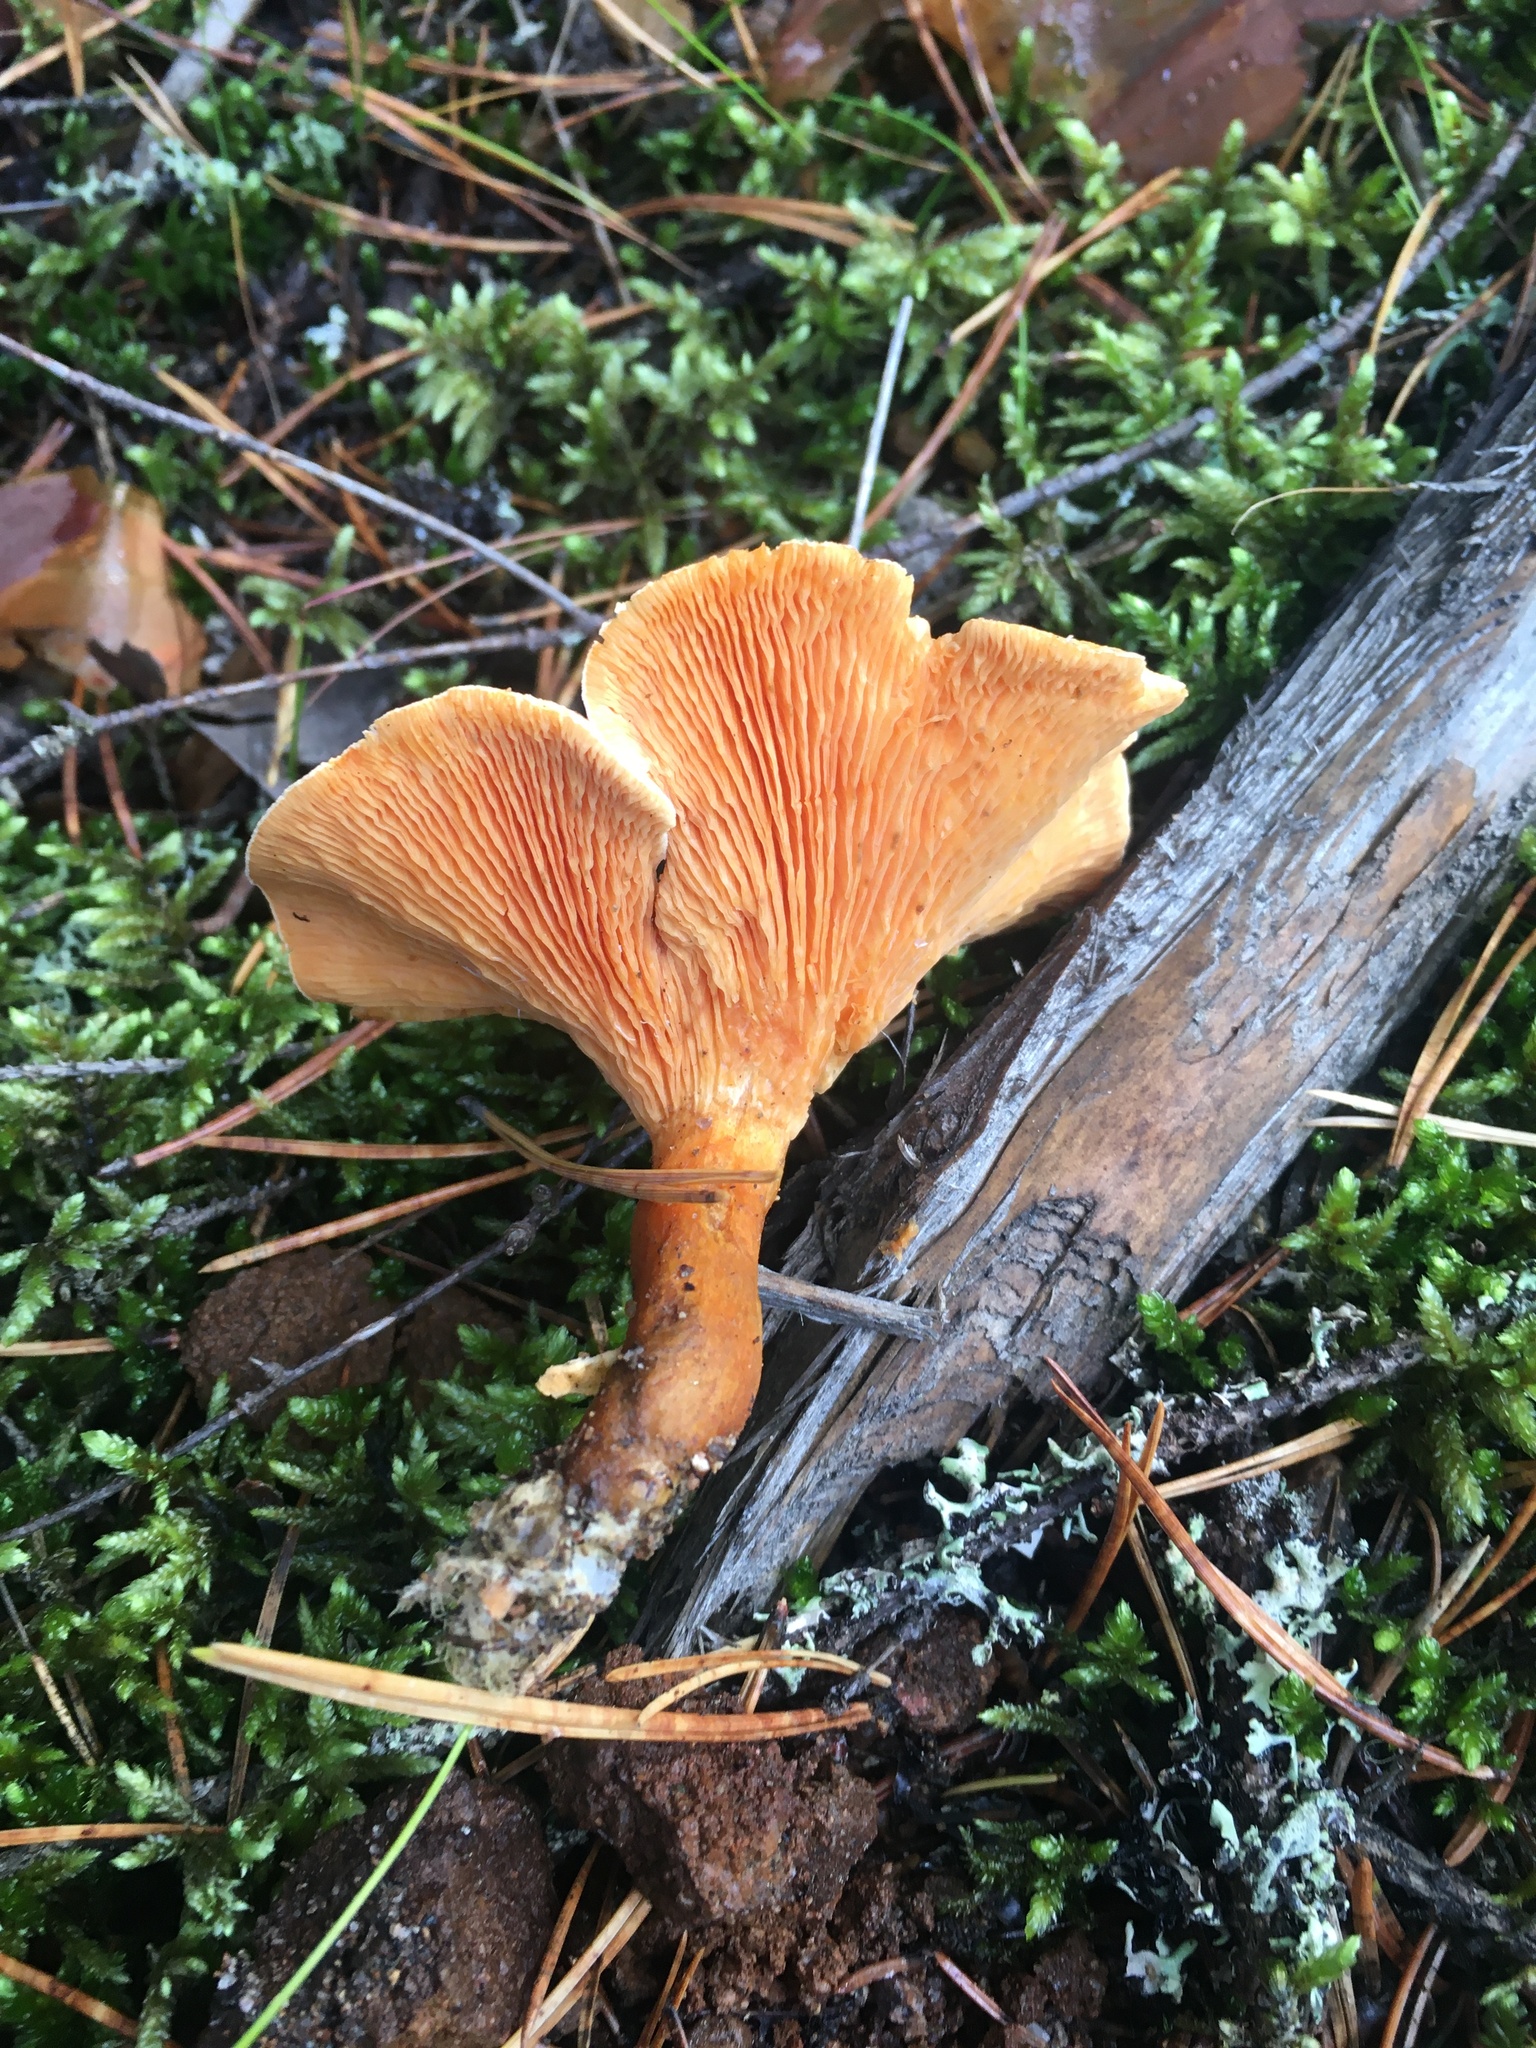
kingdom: Fungi
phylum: Basidiomycota
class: Agaricomycetes
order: Boletales
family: Hygrophoropsidaceae
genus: Hygrophoropsis
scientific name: Hygrophoropsis aurantiaca
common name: False chanterelle
